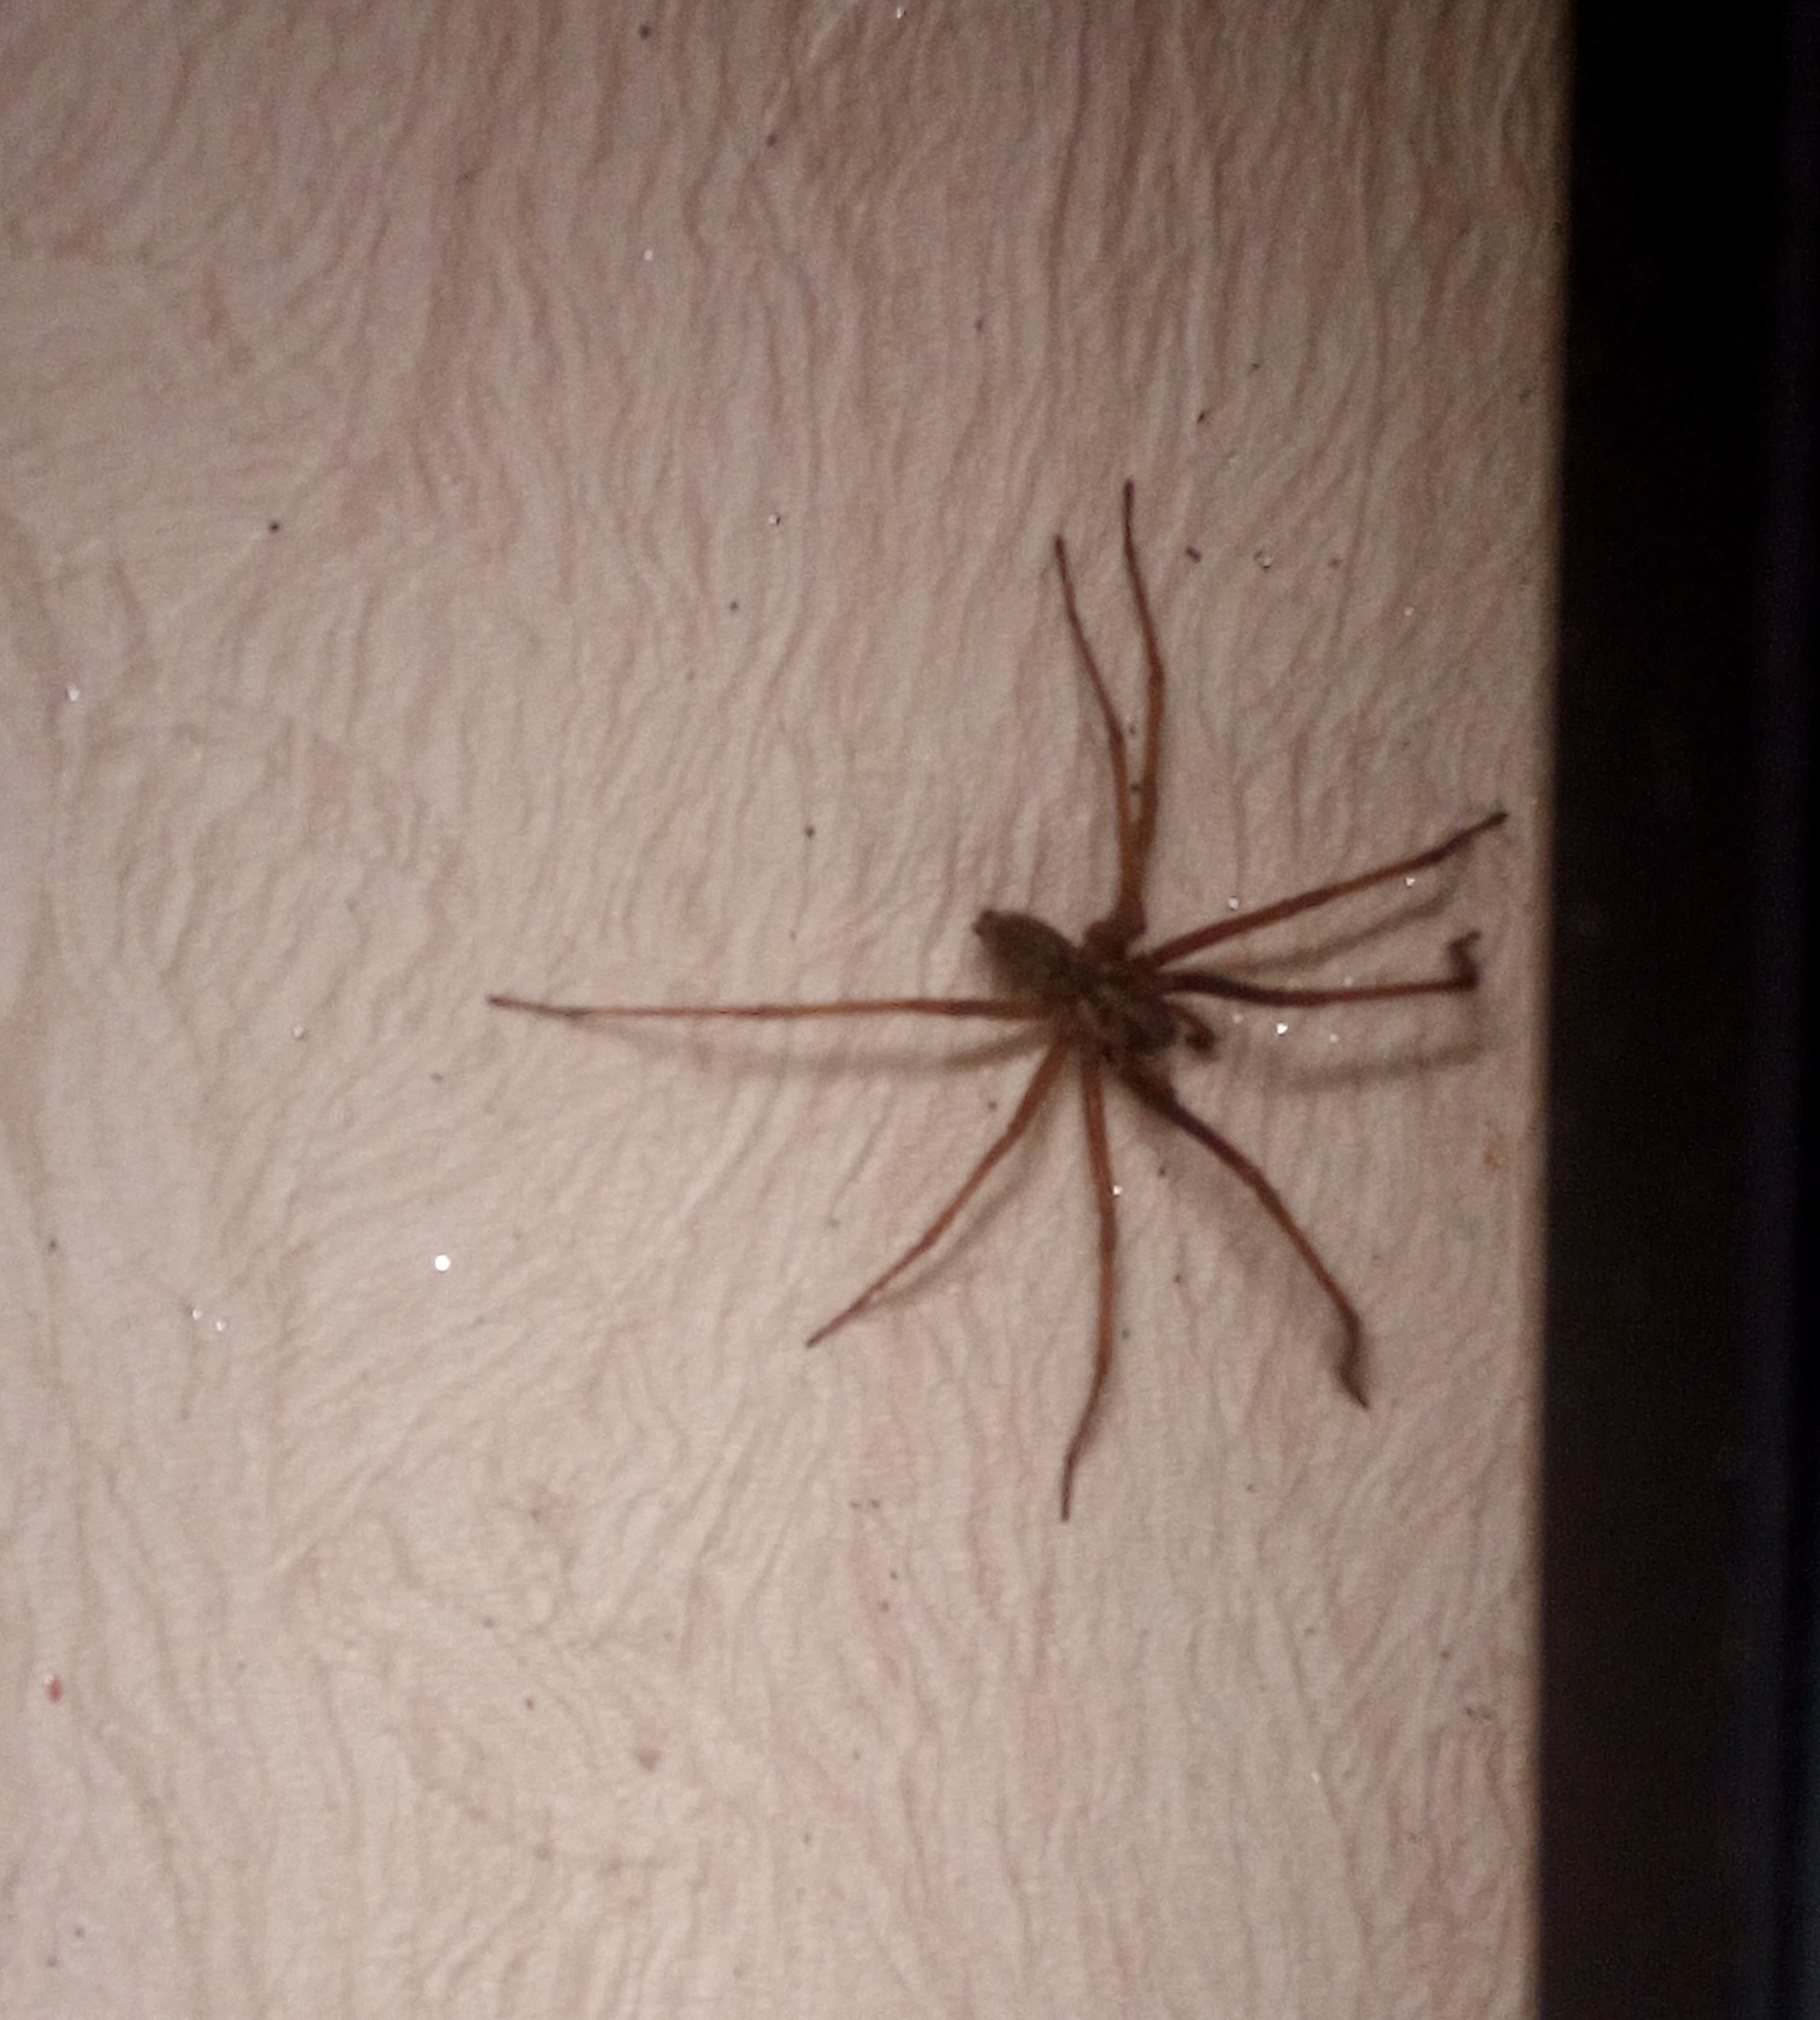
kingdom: Animalia
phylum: Arthropoda
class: Arachnida
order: Araneae
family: Agelenidae
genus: Eratigena
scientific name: Eratigena atrica
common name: Giant house spider
